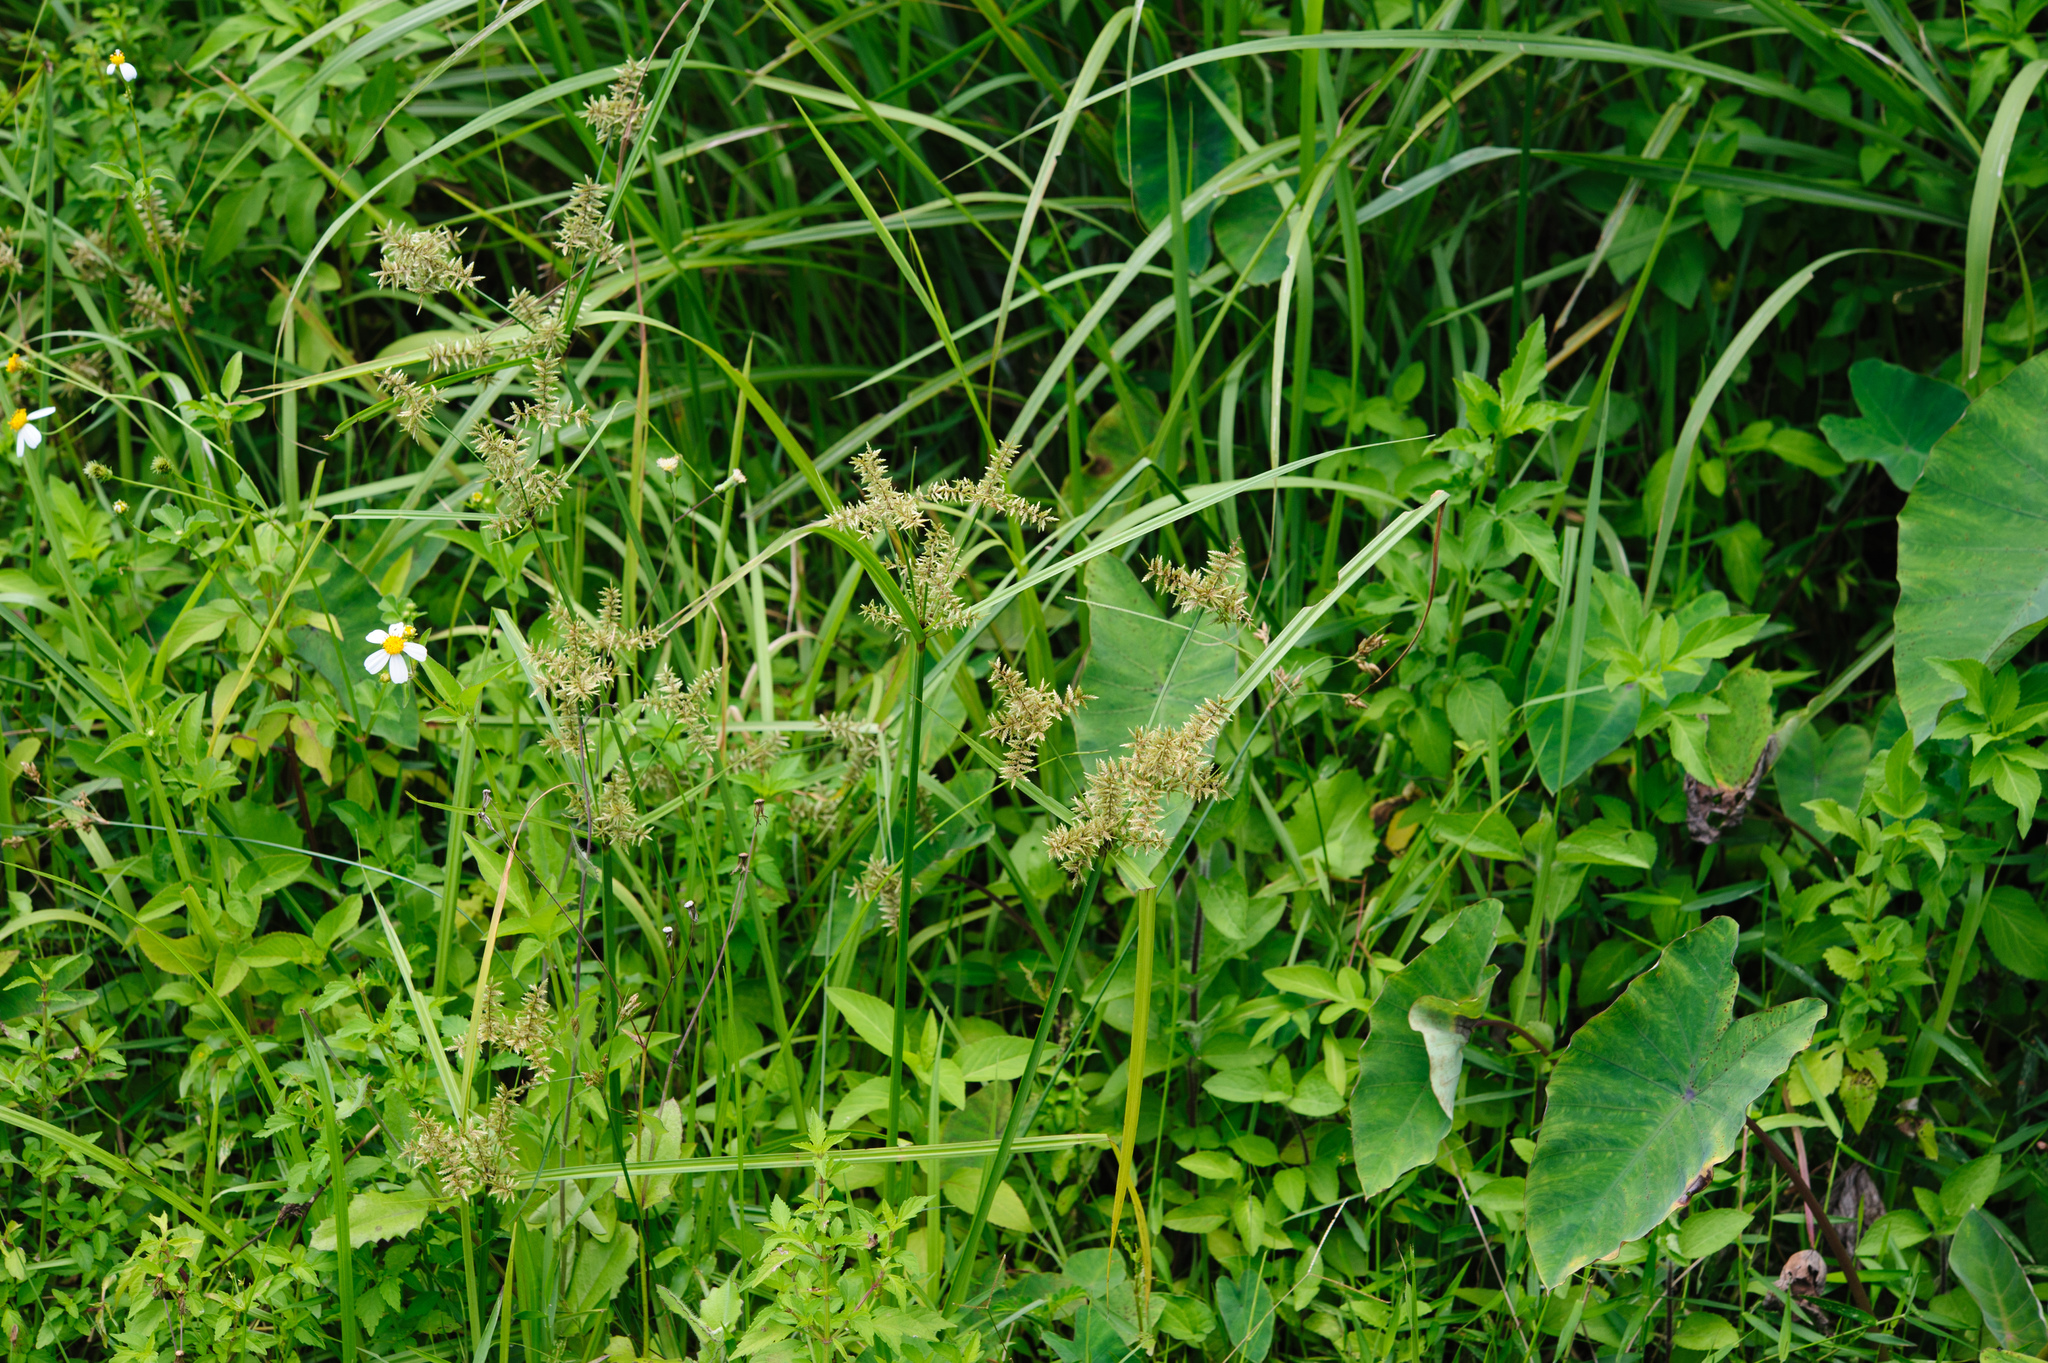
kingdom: Plantae
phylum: Tracheophyta
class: Liliopsida
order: Poales
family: Cyperaceae
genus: Cyperus
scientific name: Cyperus pilosus
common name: Fuzzy flatsedge
